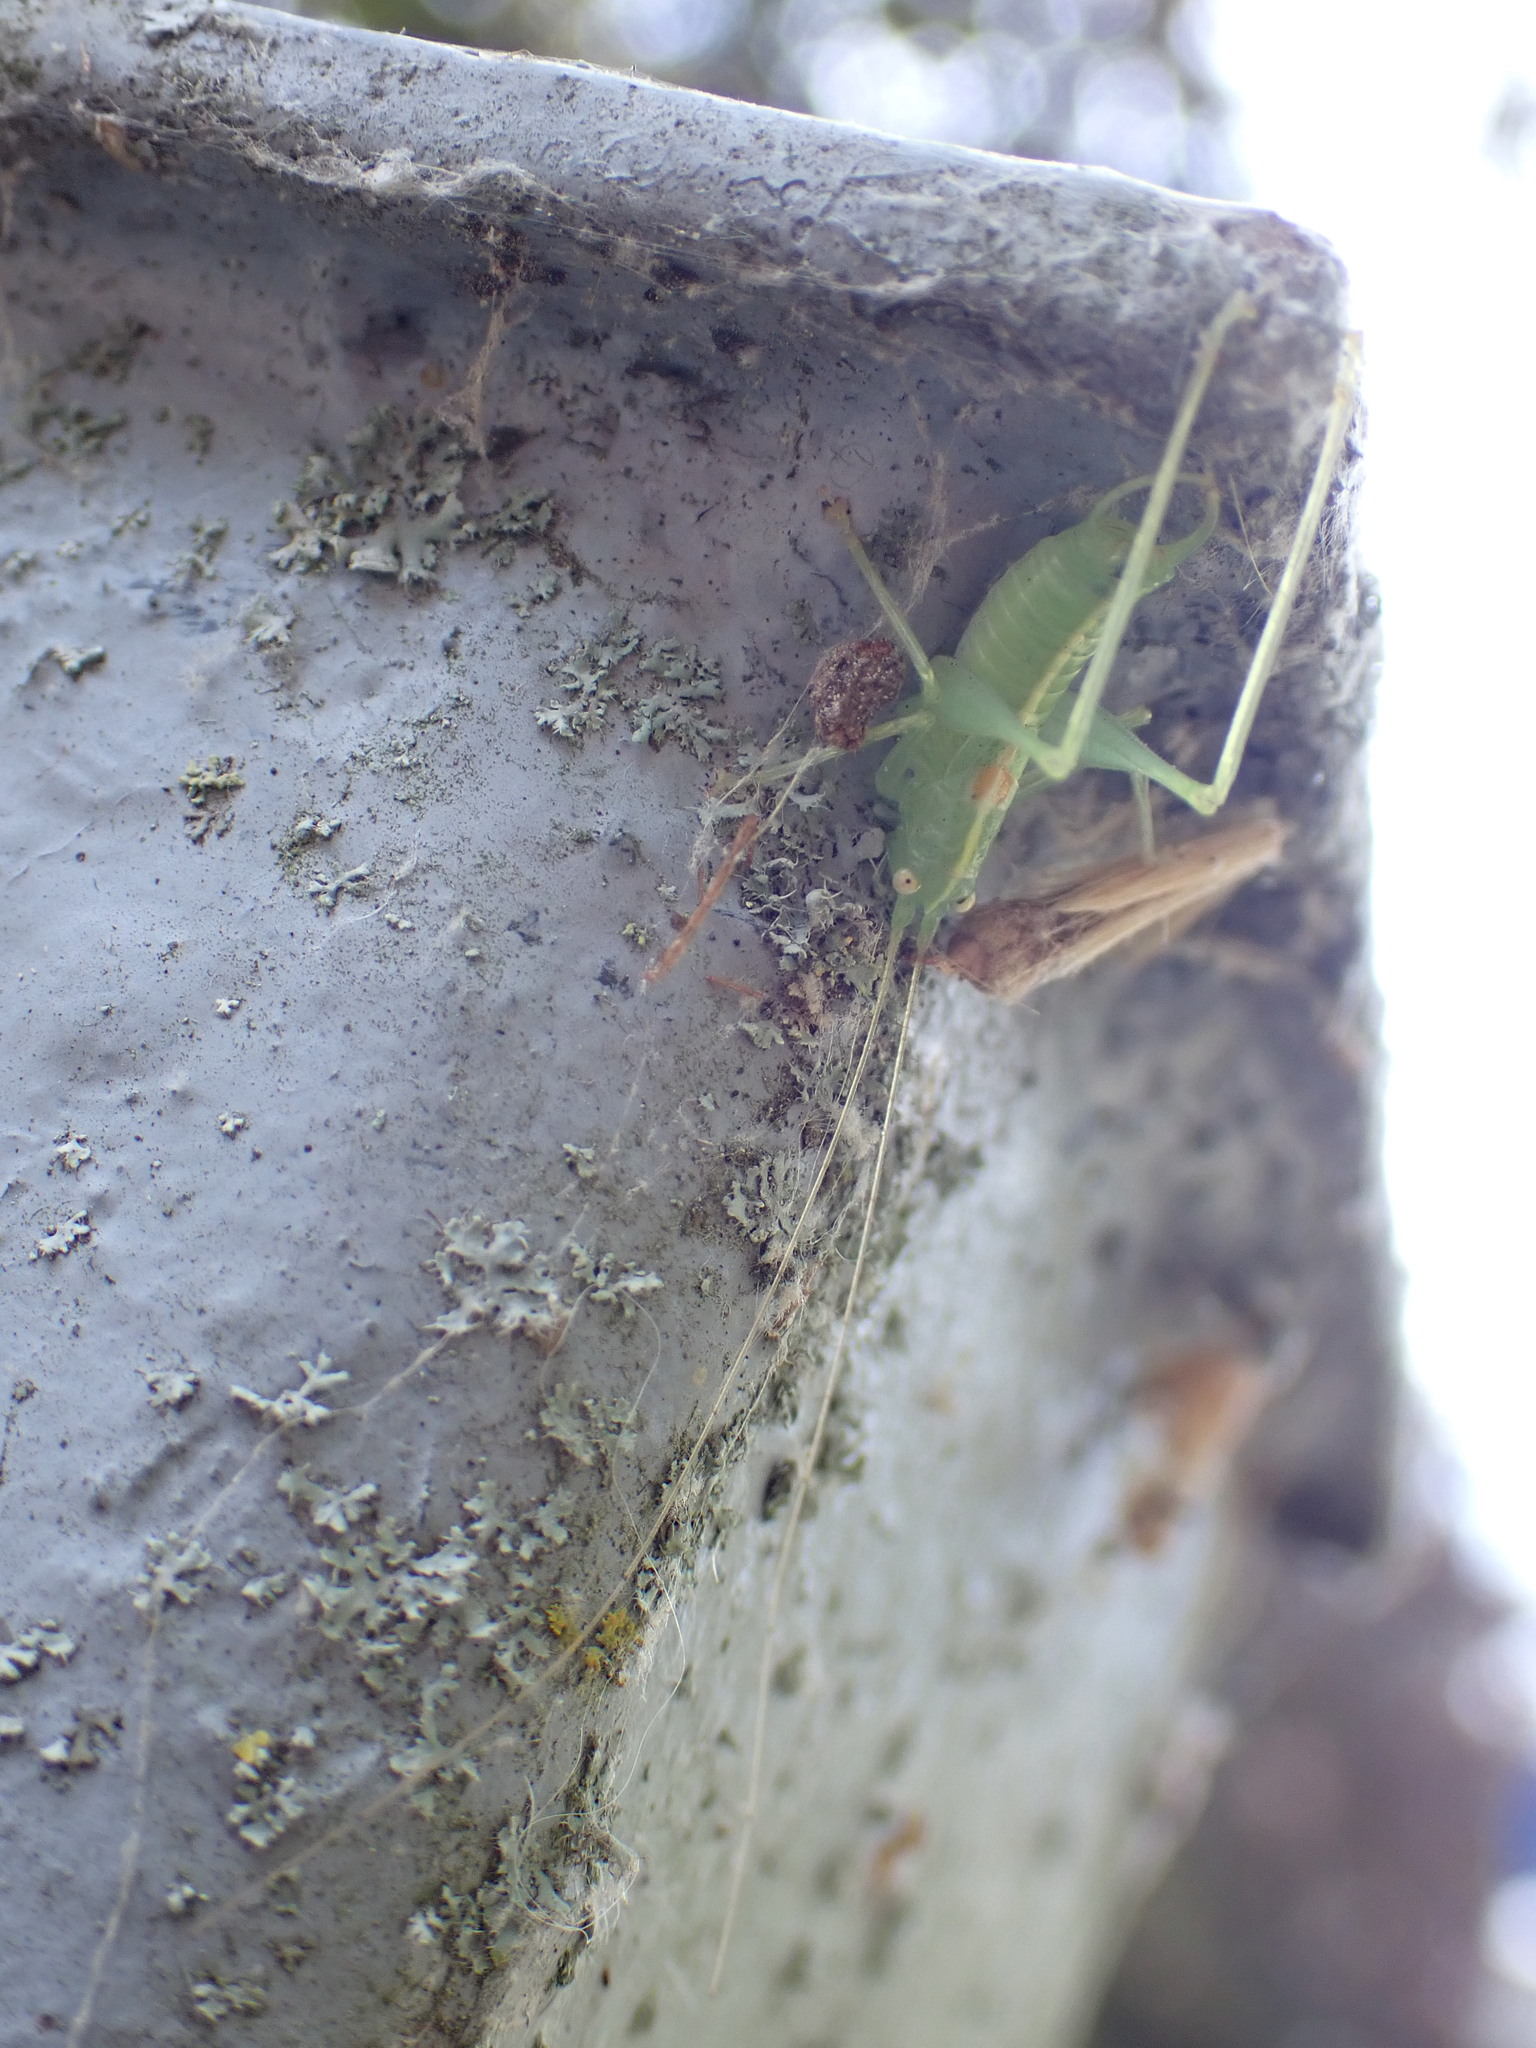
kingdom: Animalia
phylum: Arthropoda
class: Insecta
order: Orthoptera
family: Tettigoniidae
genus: Meconema
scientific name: Meconema meridionale
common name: Southern oak bush-cricket
